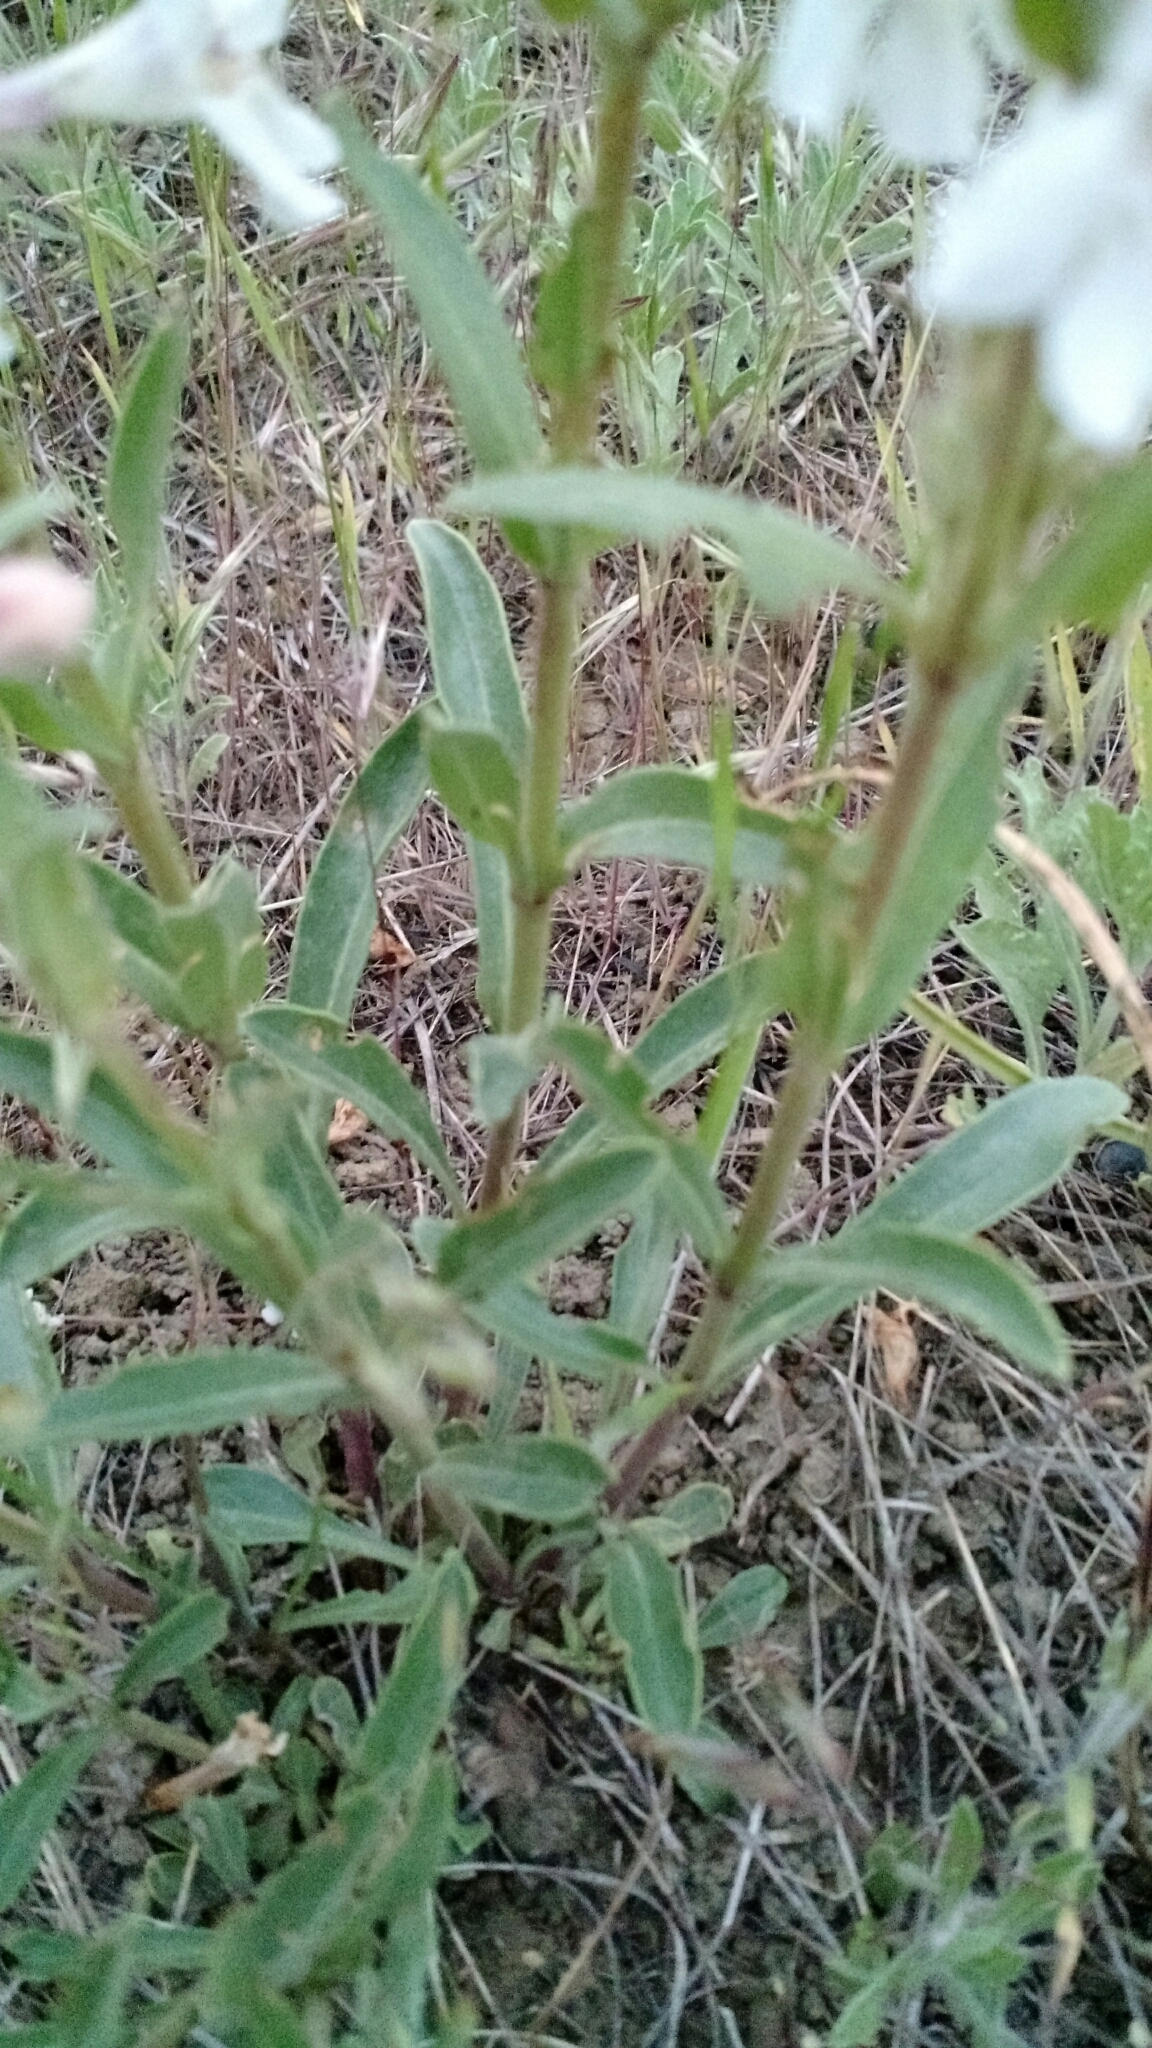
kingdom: Plantae
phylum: Tracheophyta
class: Magnoliopsida
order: Lamiales
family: Plantaginaceae
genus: Penstemon
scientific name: Penstemon albidus
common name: White beardtongue
